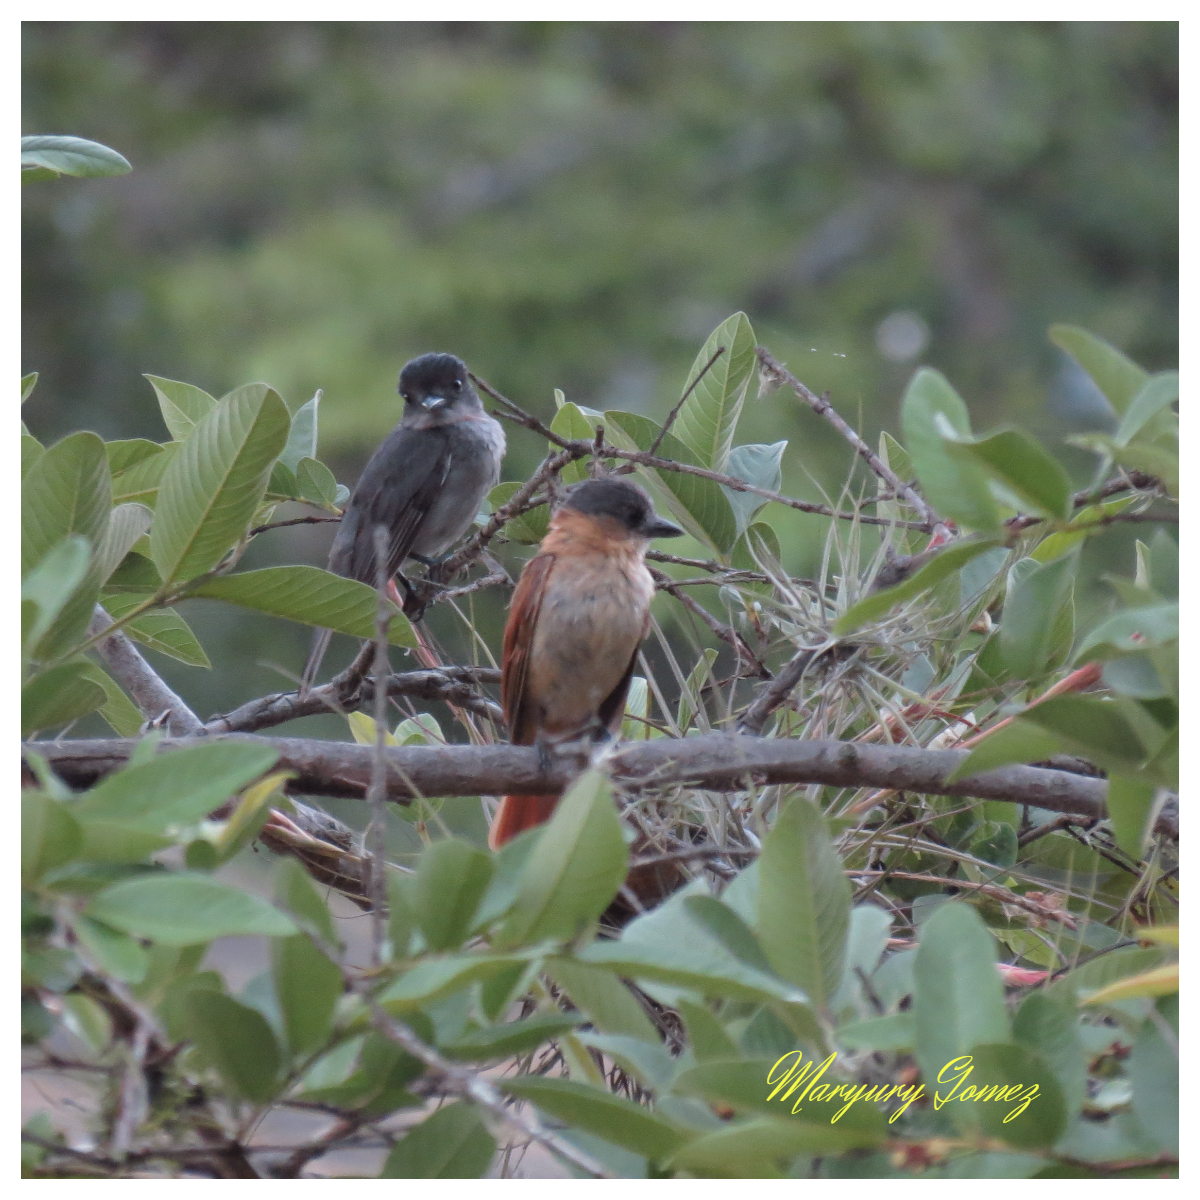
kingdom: Animalia
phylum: Chordata
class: Aves
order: Passeriformes
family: Cotingidae
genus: Pachyramphus
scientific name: Pachyramphus aglaiae
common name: Rose-throated becard
